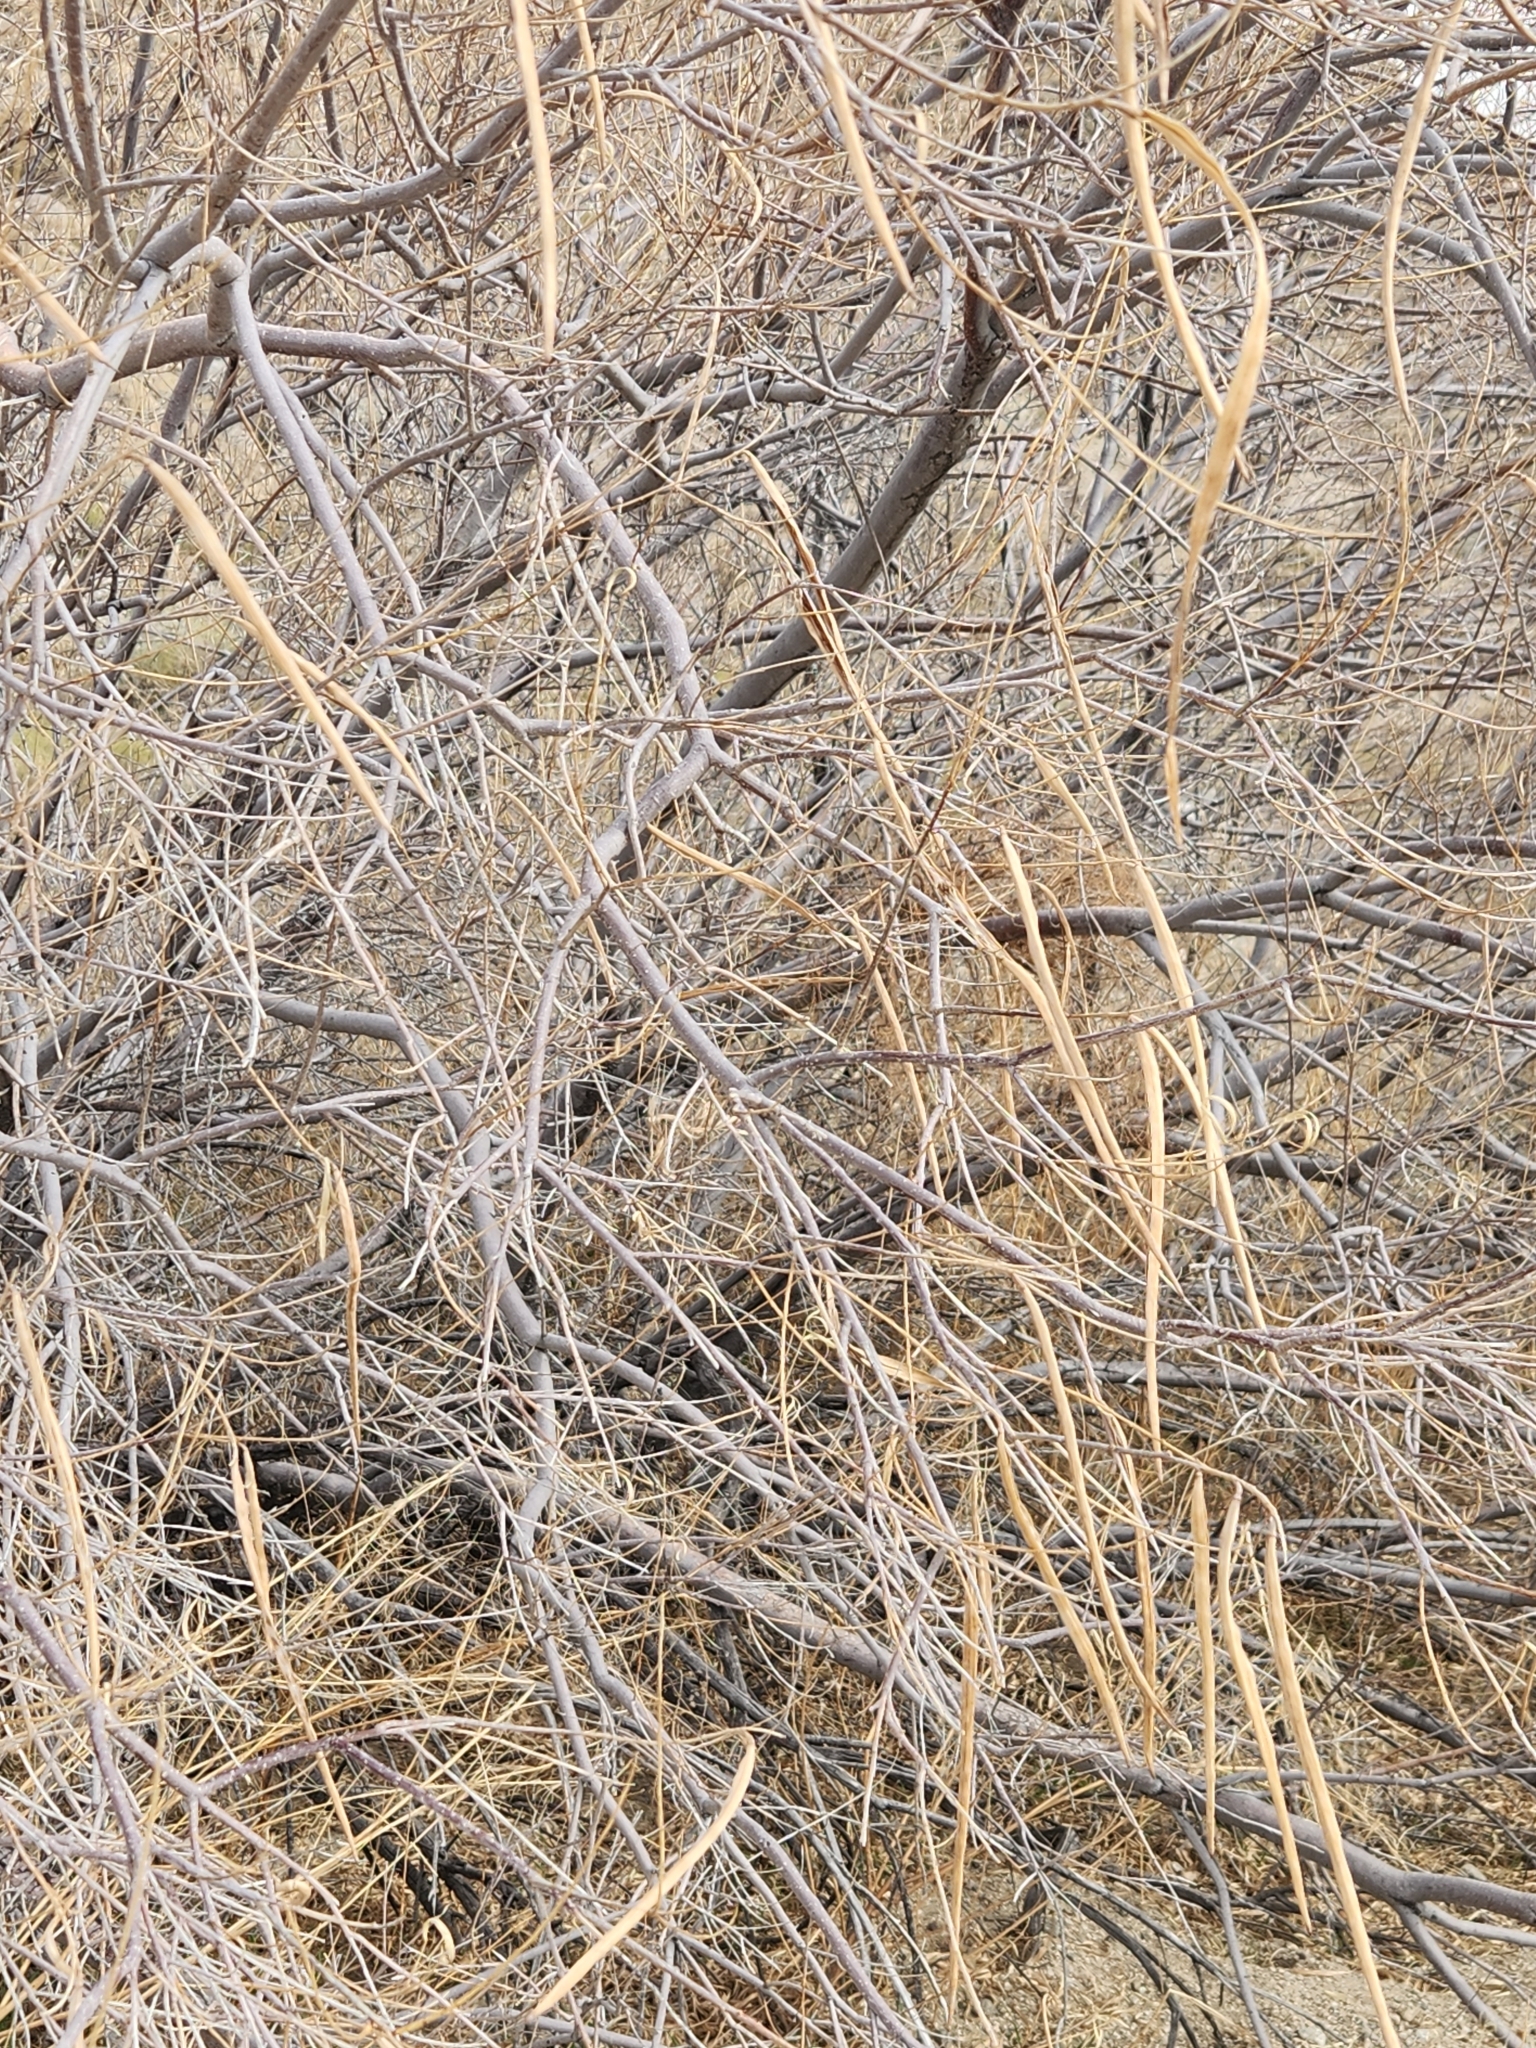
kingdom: Plantae
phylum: Tracheophyta
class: Magnoliopsida
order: Lamiales
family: Bignoniaceae
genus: Chilopsis
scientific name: Chilopsis linearis
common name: Desert-willow
